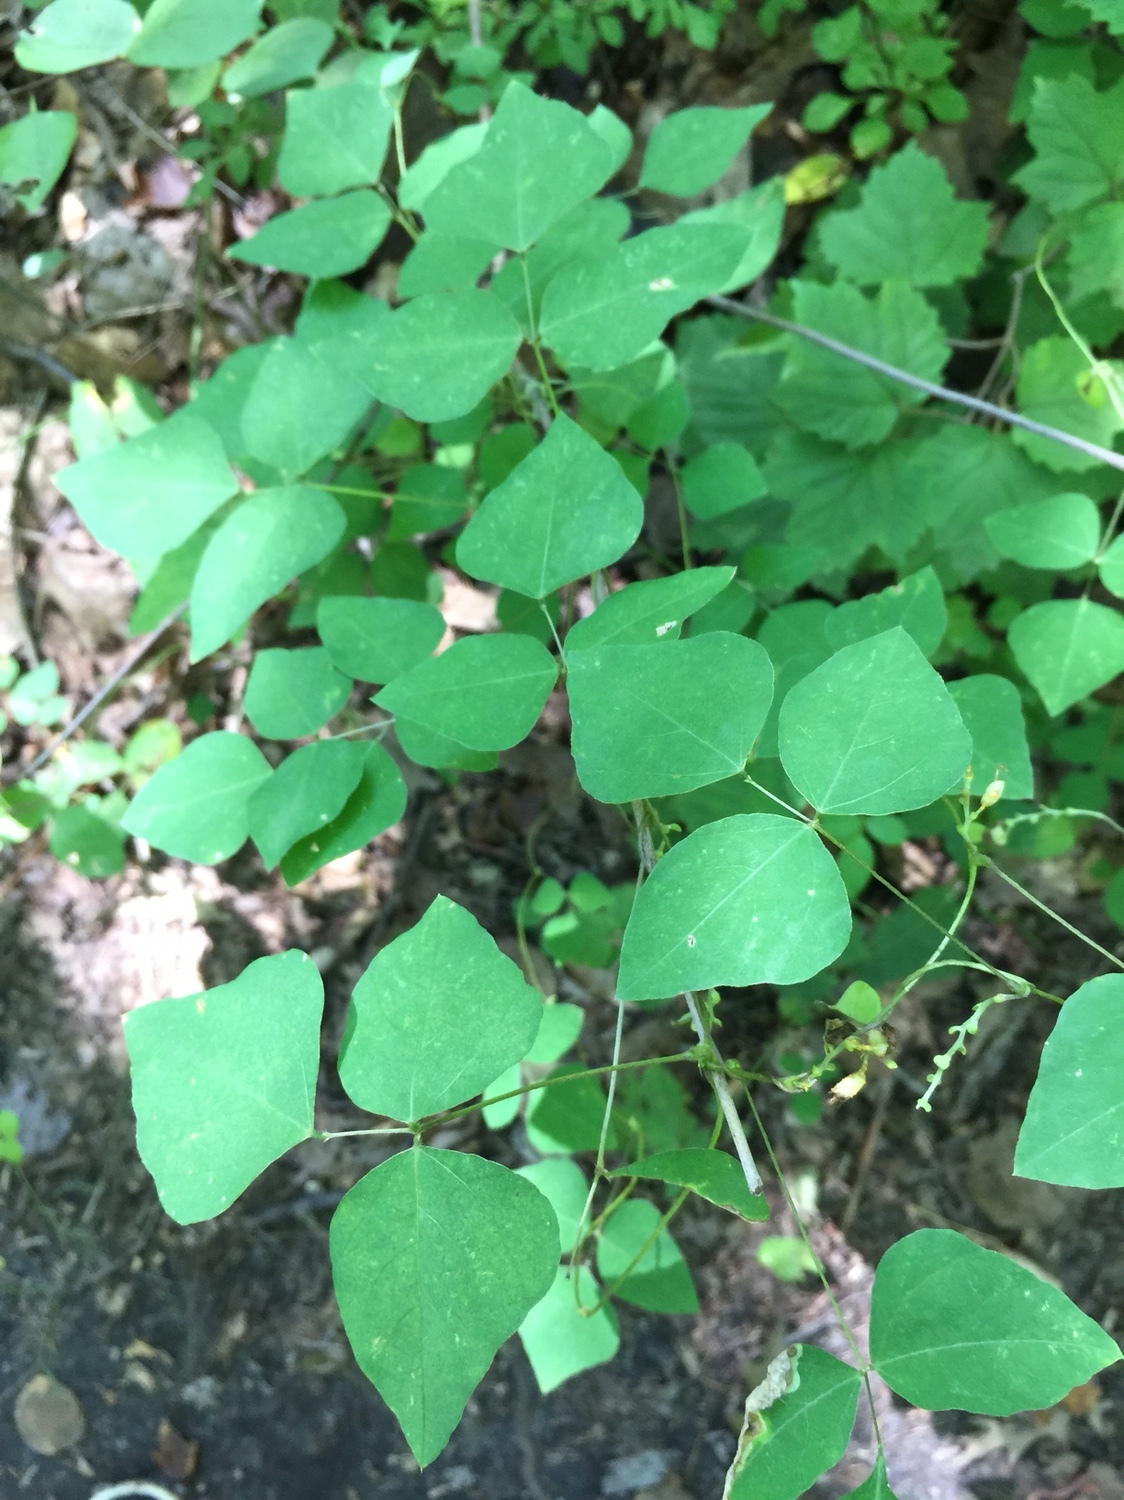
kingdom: Plantae
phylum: Tracheophyta
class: Magnoliopsida
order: Fabales
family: Fabaceae
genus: Amphicarpaea
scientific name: Amphicarpaea bracteata
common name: American hog peanut
